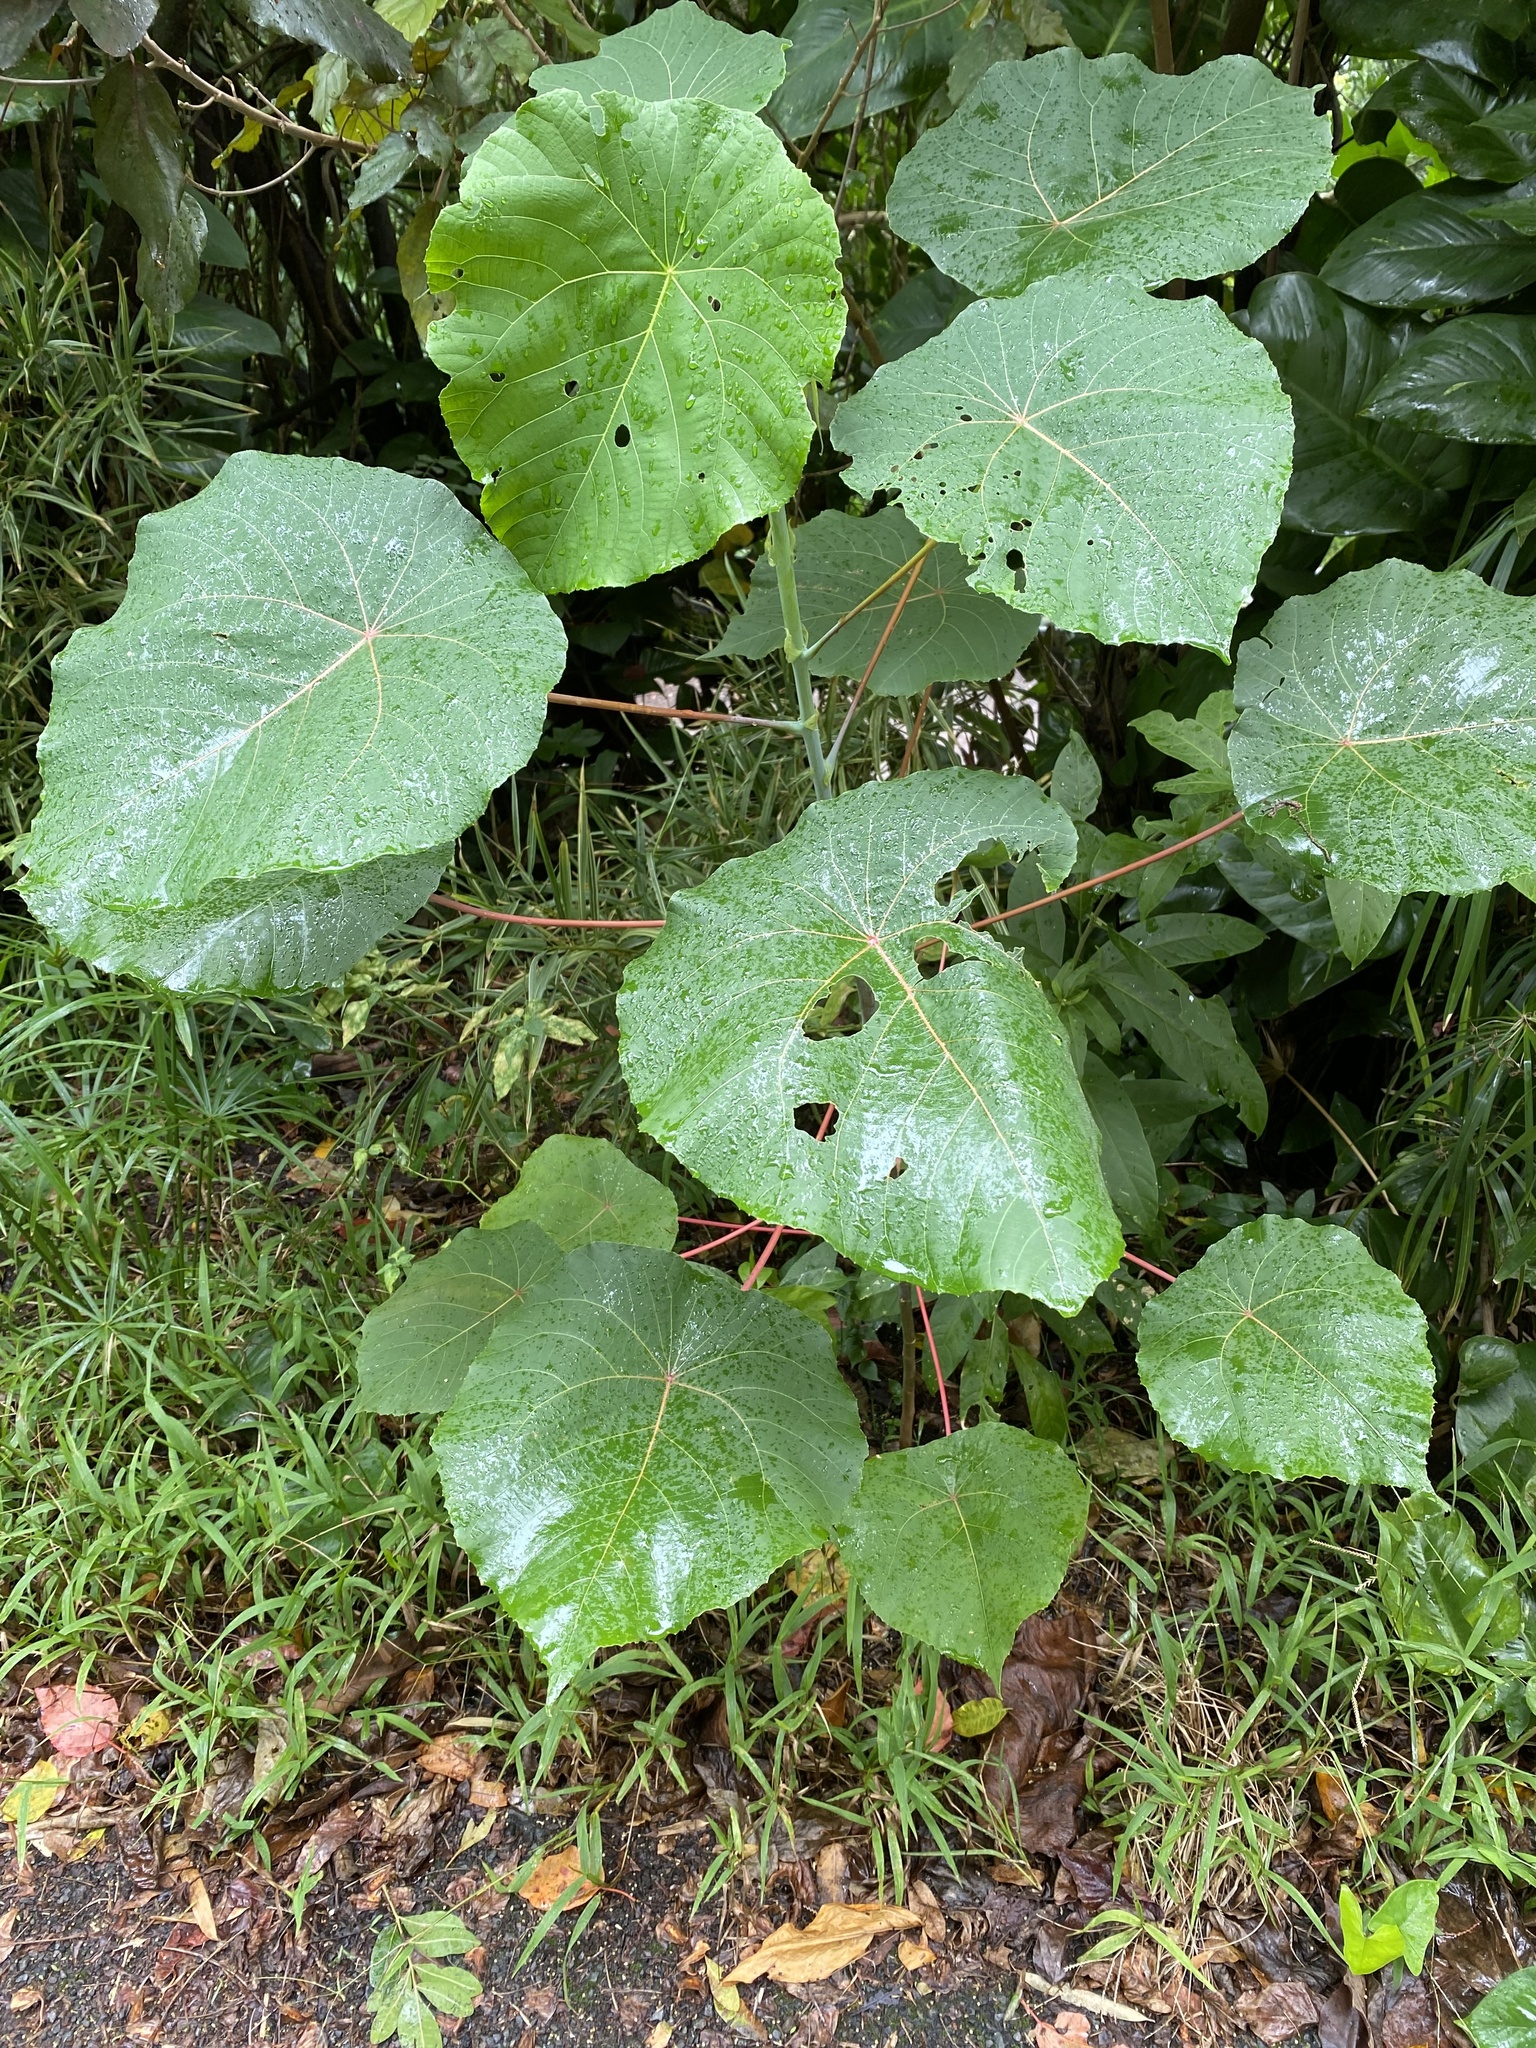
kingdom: Plantae
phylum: Tracheophyta
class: Magnoliopsida
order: Malpighiales
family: Euphorbiaceae
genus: Macaranga
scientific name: Macaranga tanarius
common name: Parasol leaf tree
